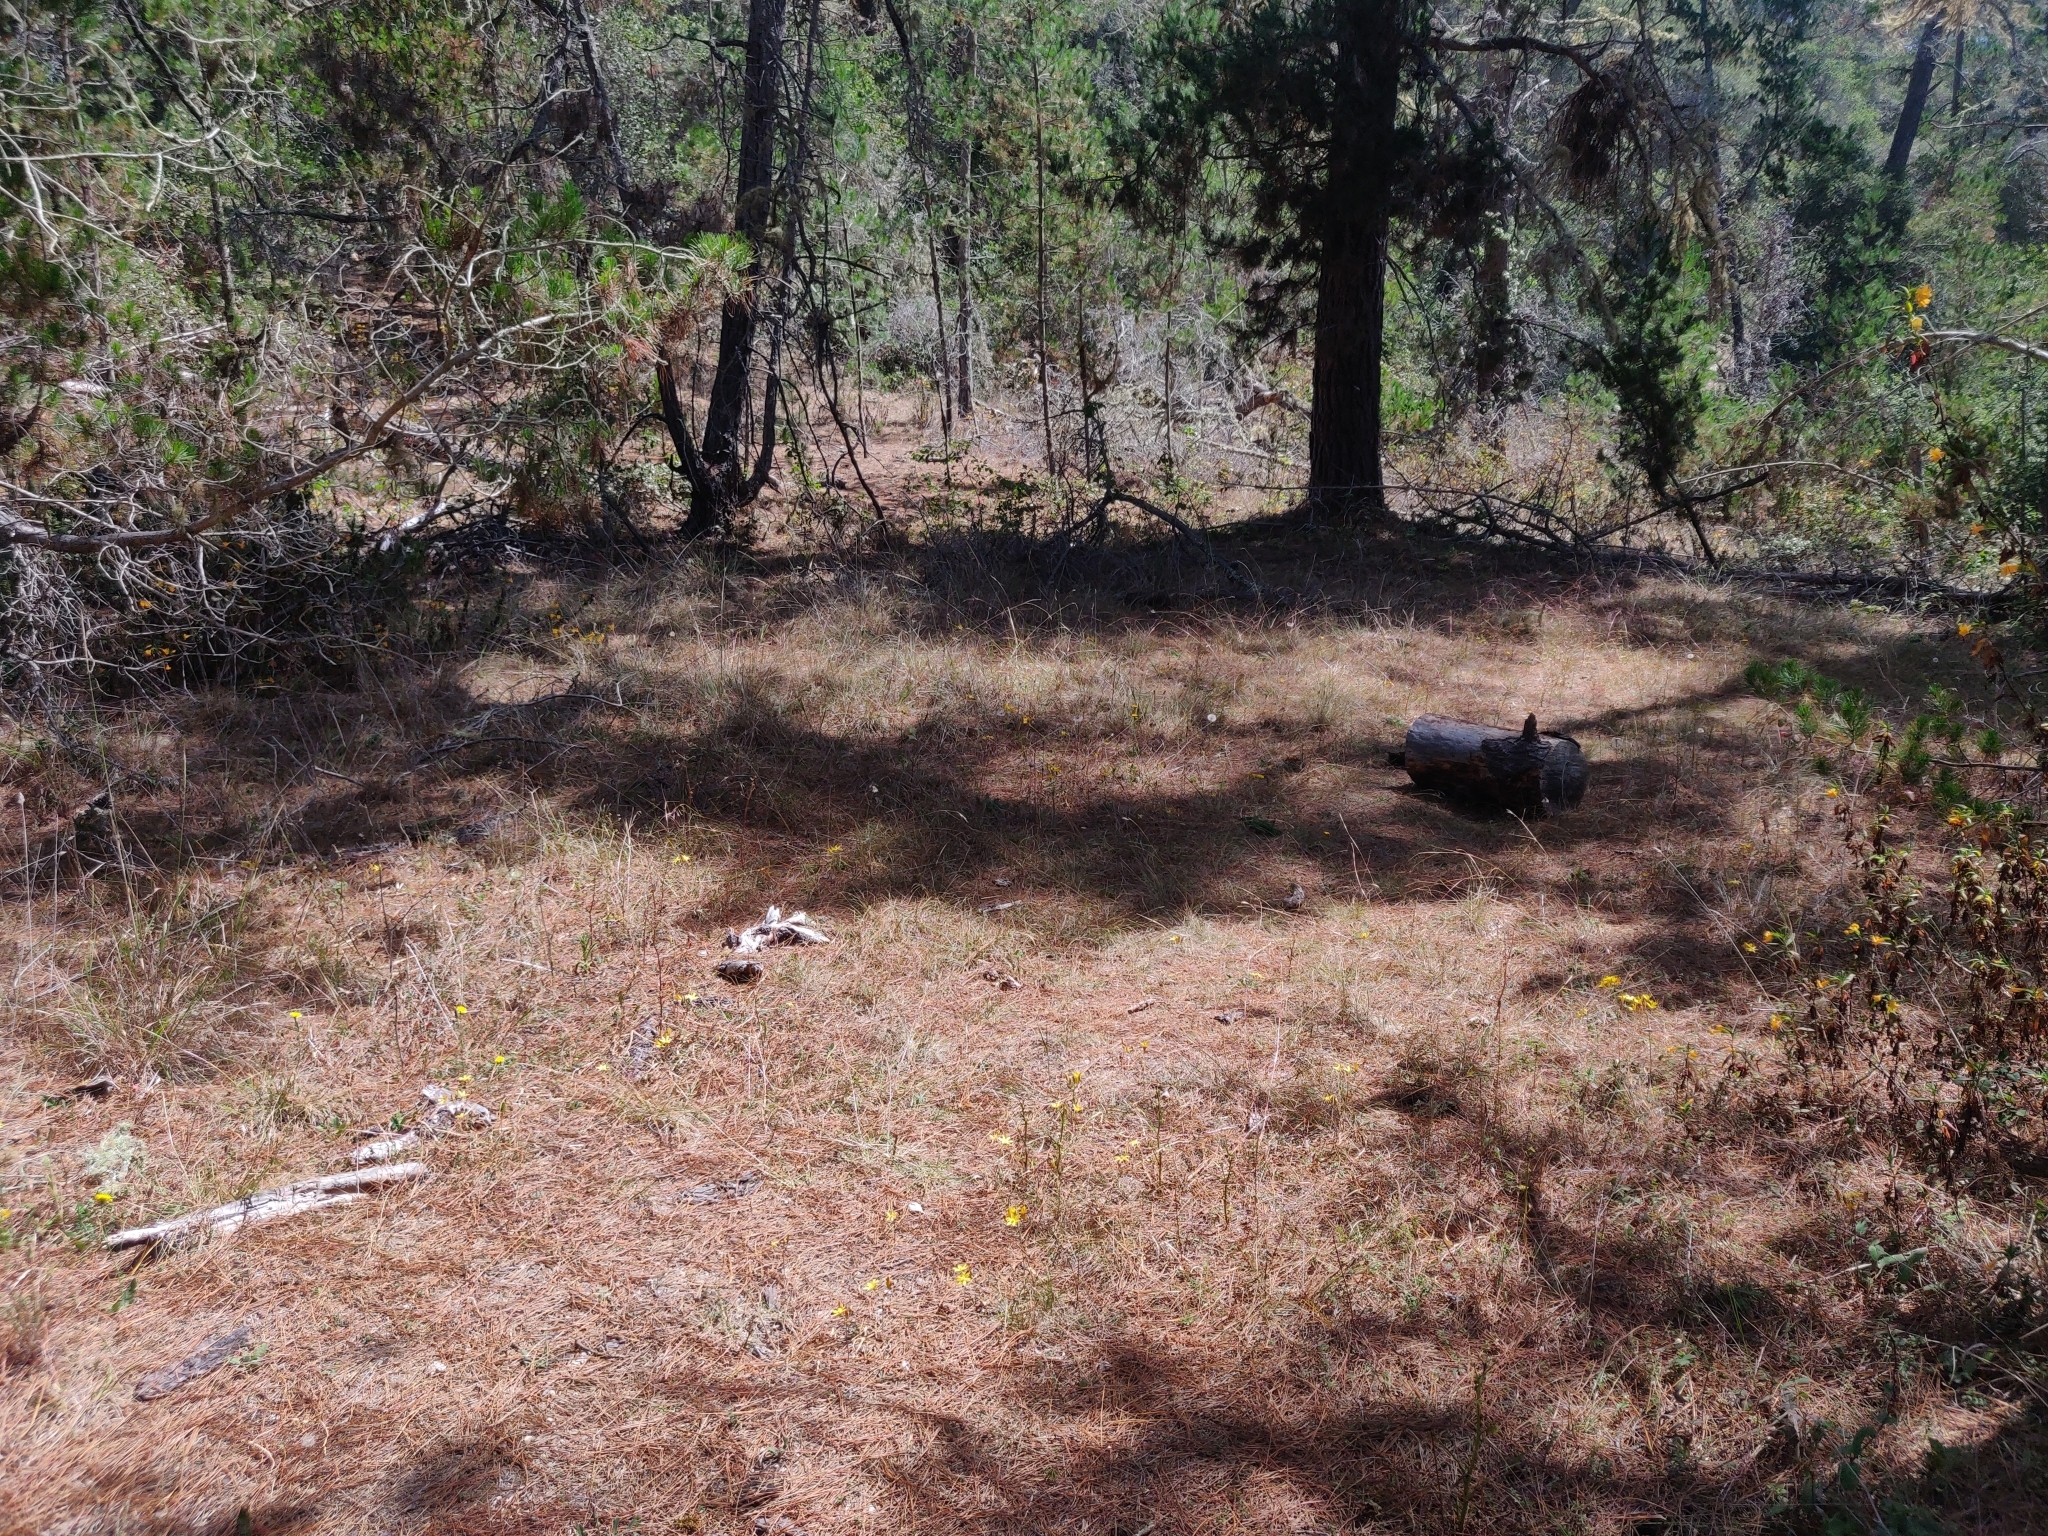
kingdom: Plantae
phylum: Tracheophyta
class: Liliopsida
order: Asparagales
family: Asparagaceae
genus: Triteleia
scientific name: Triteleia ixioides
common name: Yellow-brodiaea
